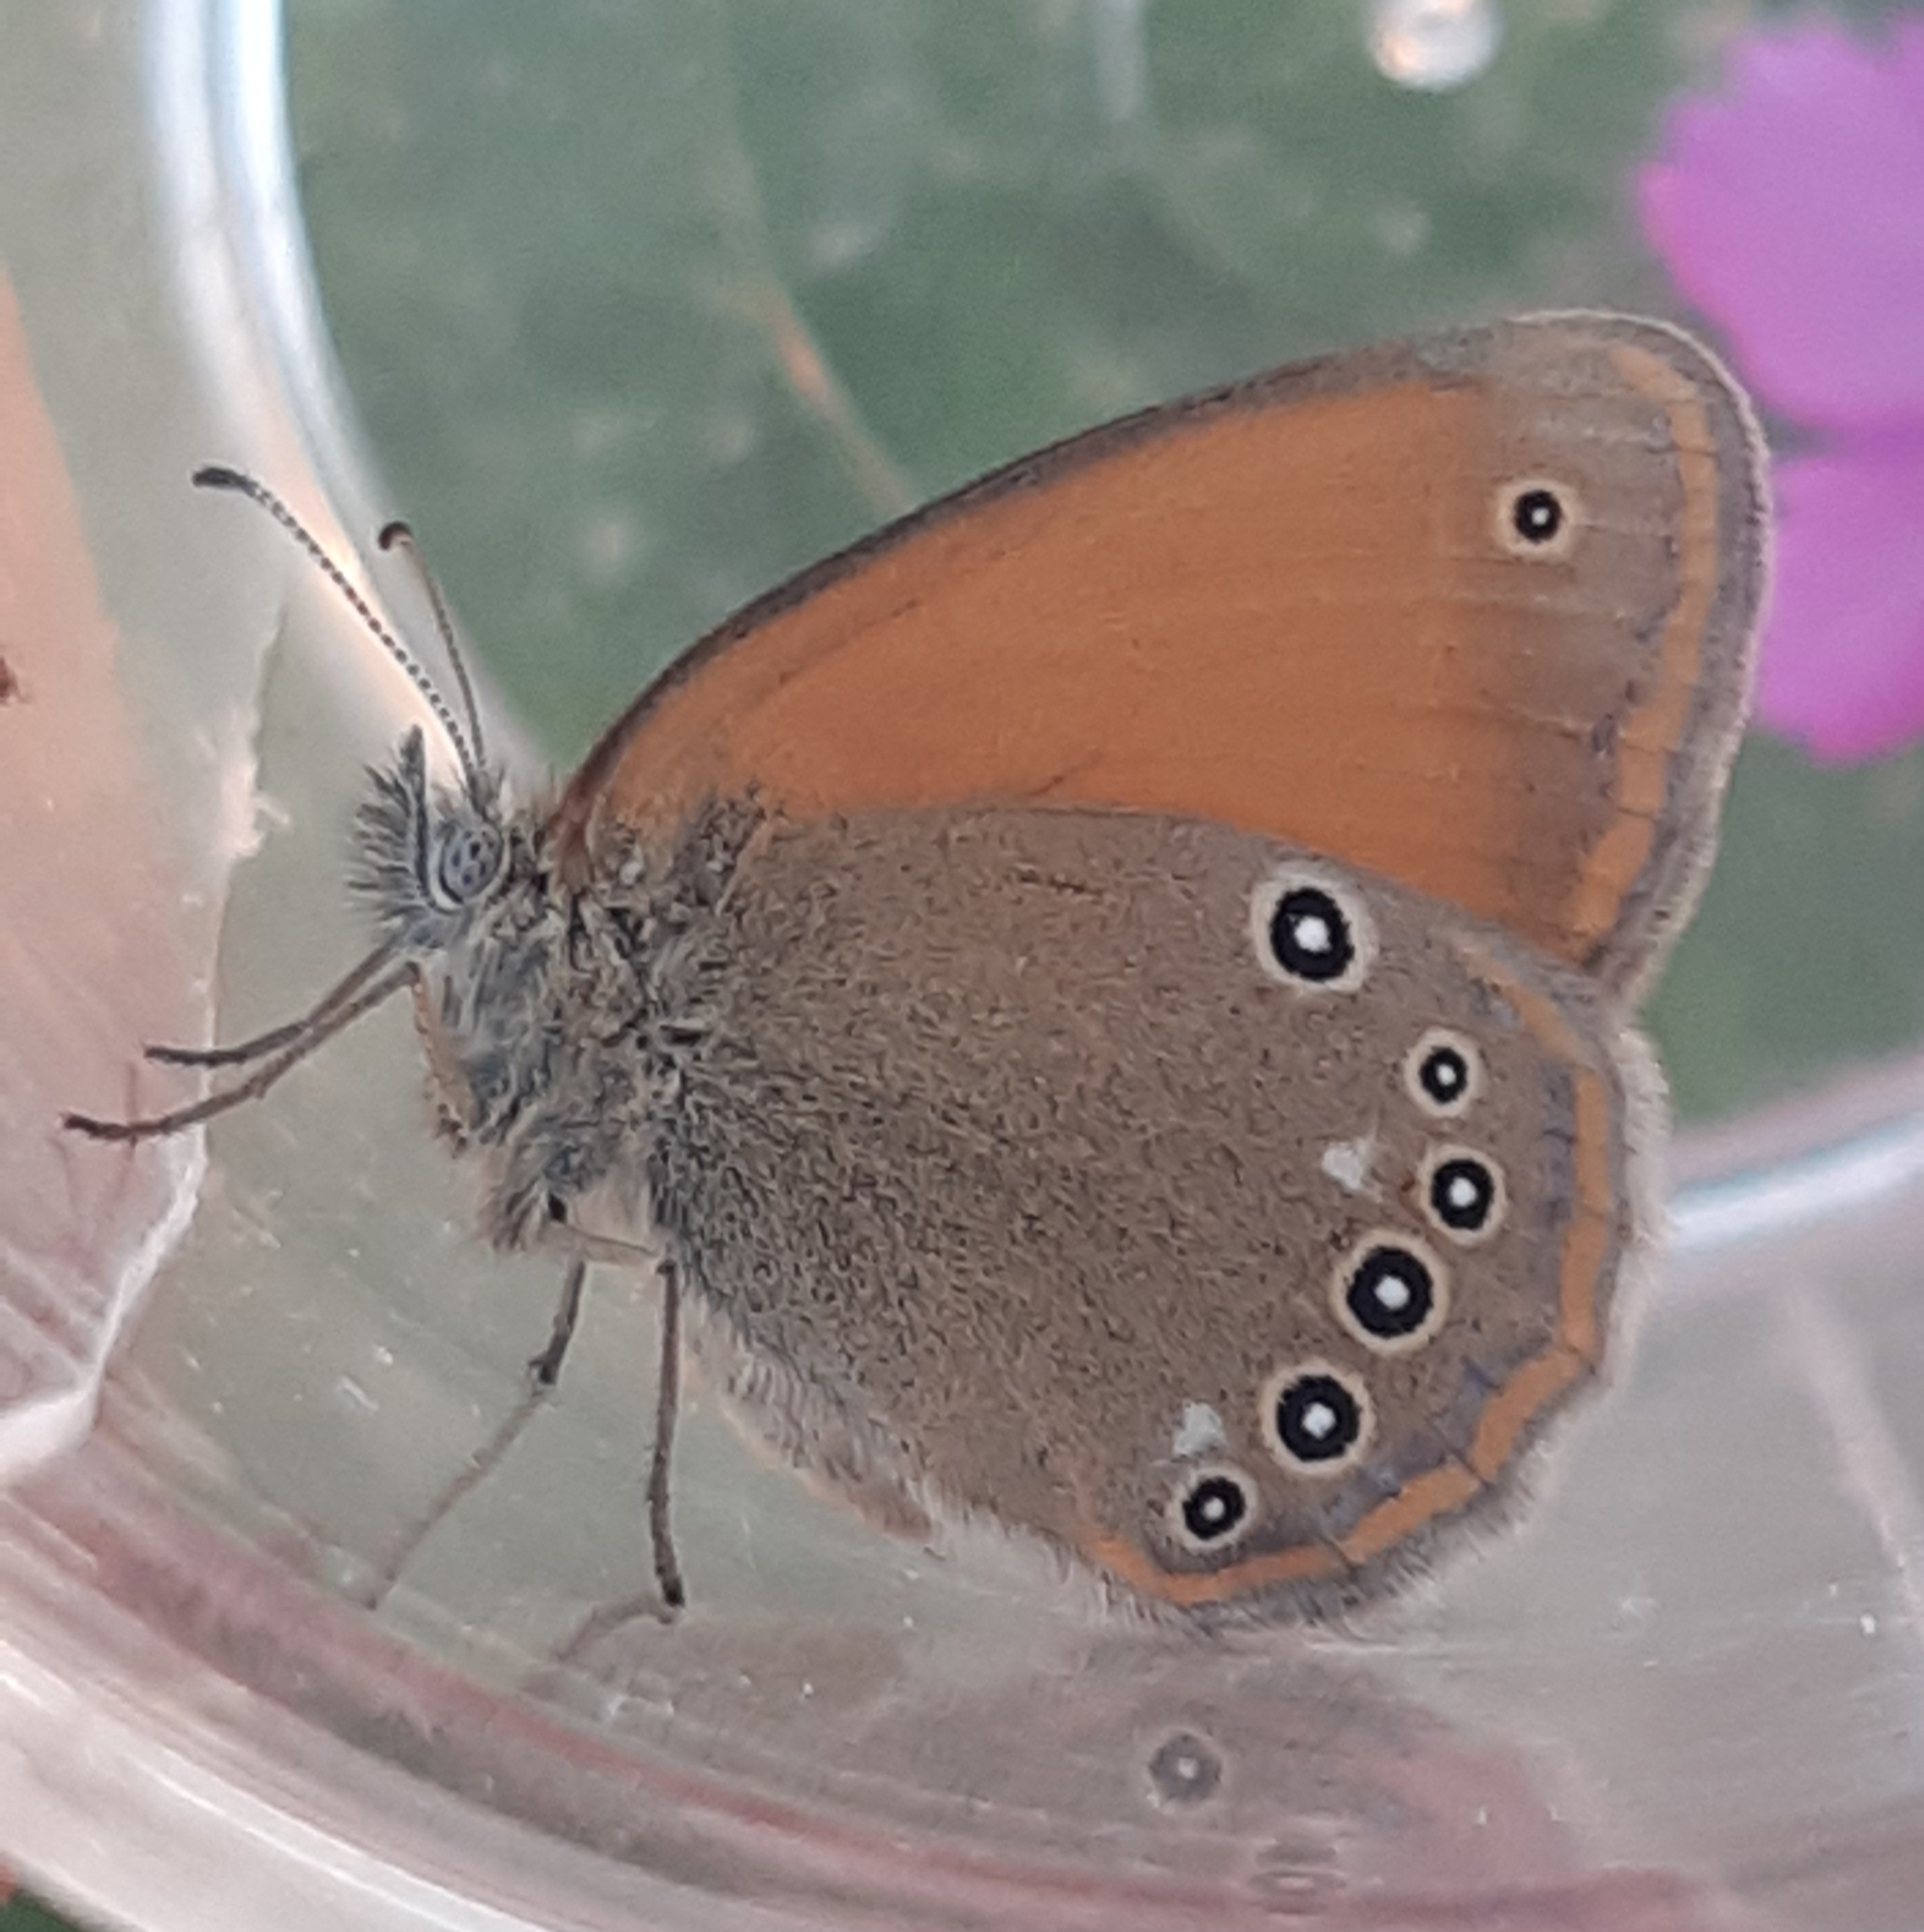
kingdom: Animalia
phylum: Arthropoda
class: Insecta
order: Lepidoptera
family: Nymphalidae
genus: Coenonympha
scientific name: Coenonympha iphis
